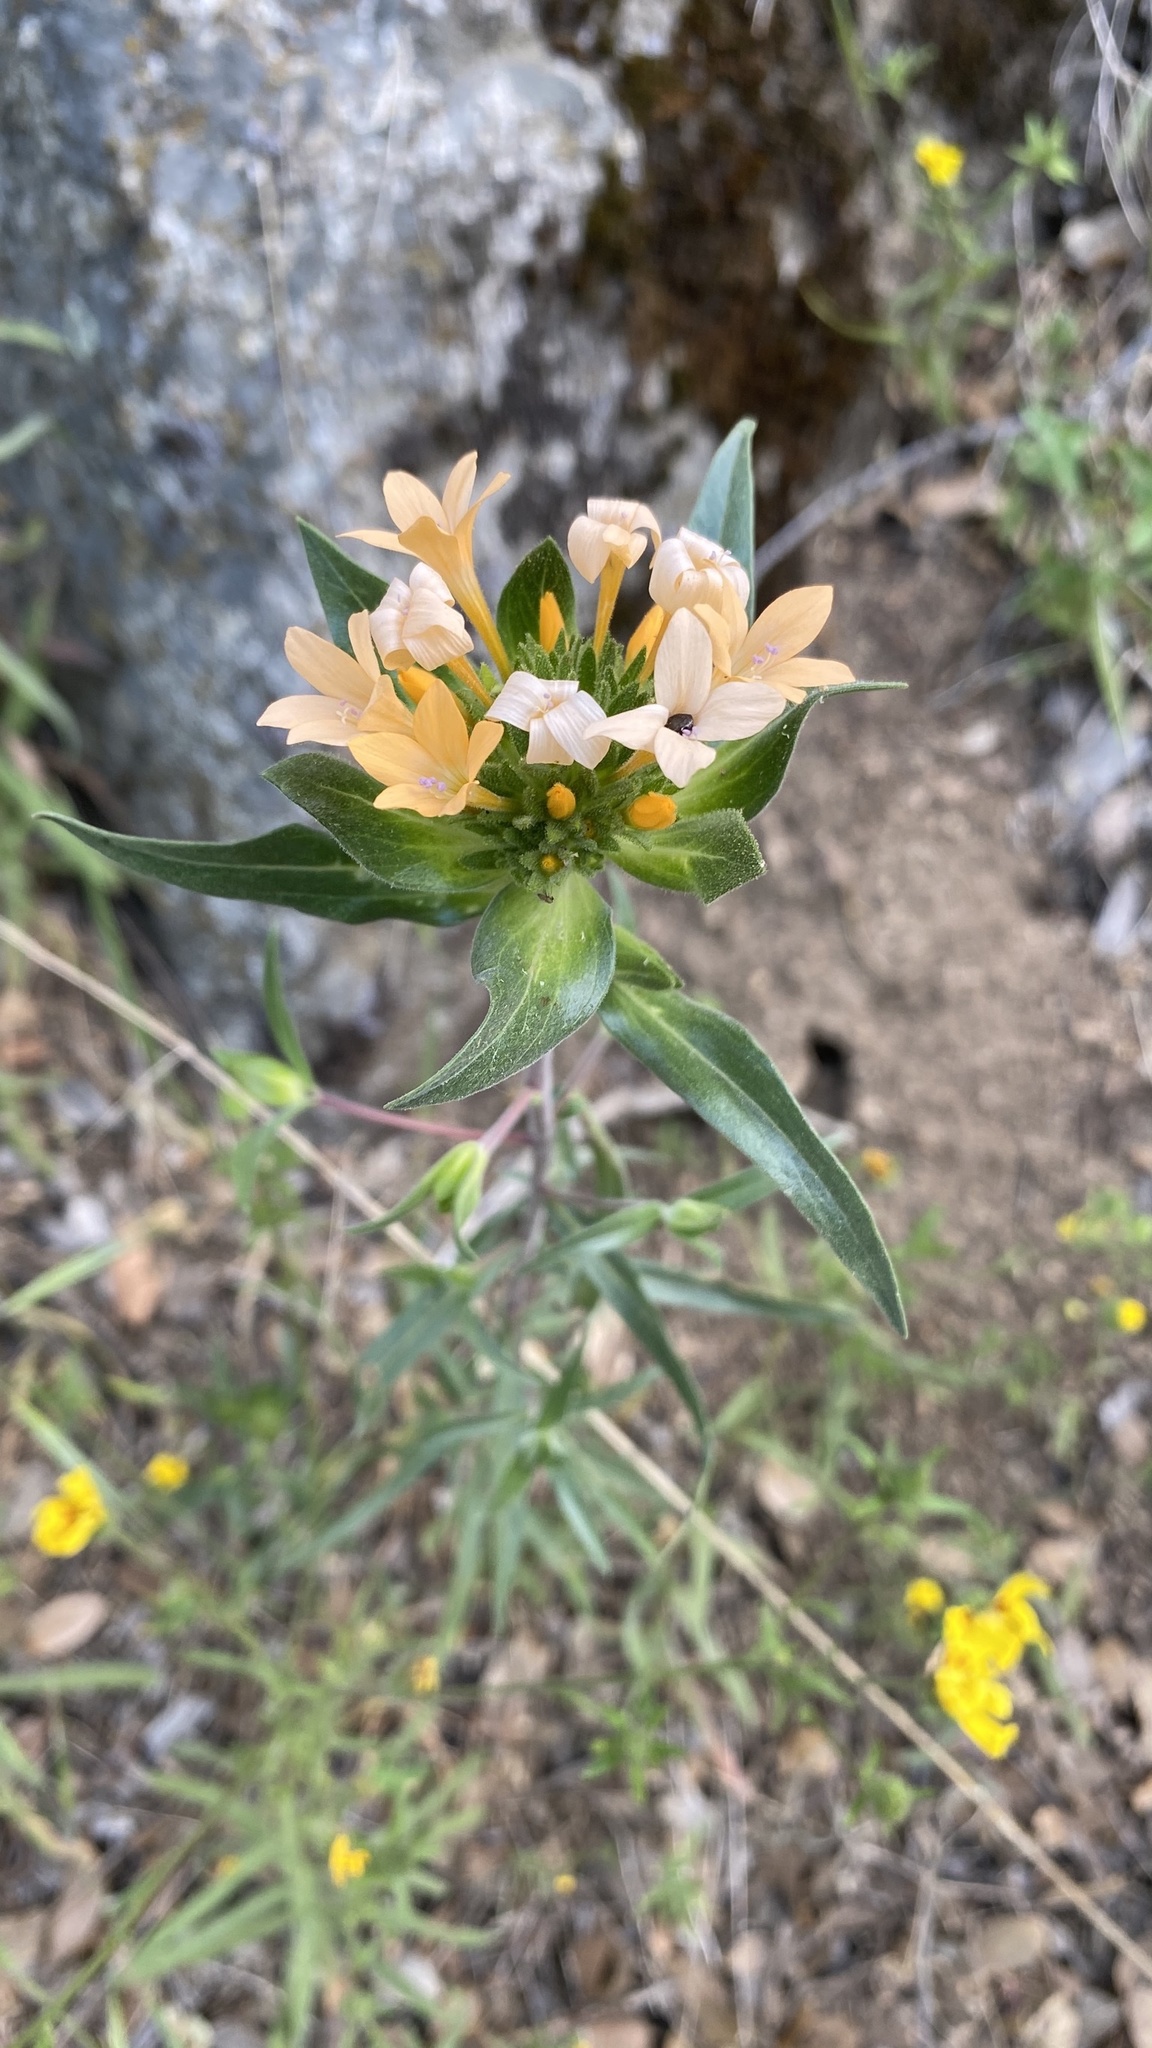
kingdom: Plantae
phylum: Tracheophyta
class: Magnoliopsida
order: Ericales
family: Polemoniaceae
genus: Collomia
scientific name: Collomia grandiflora
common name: California strawflower
